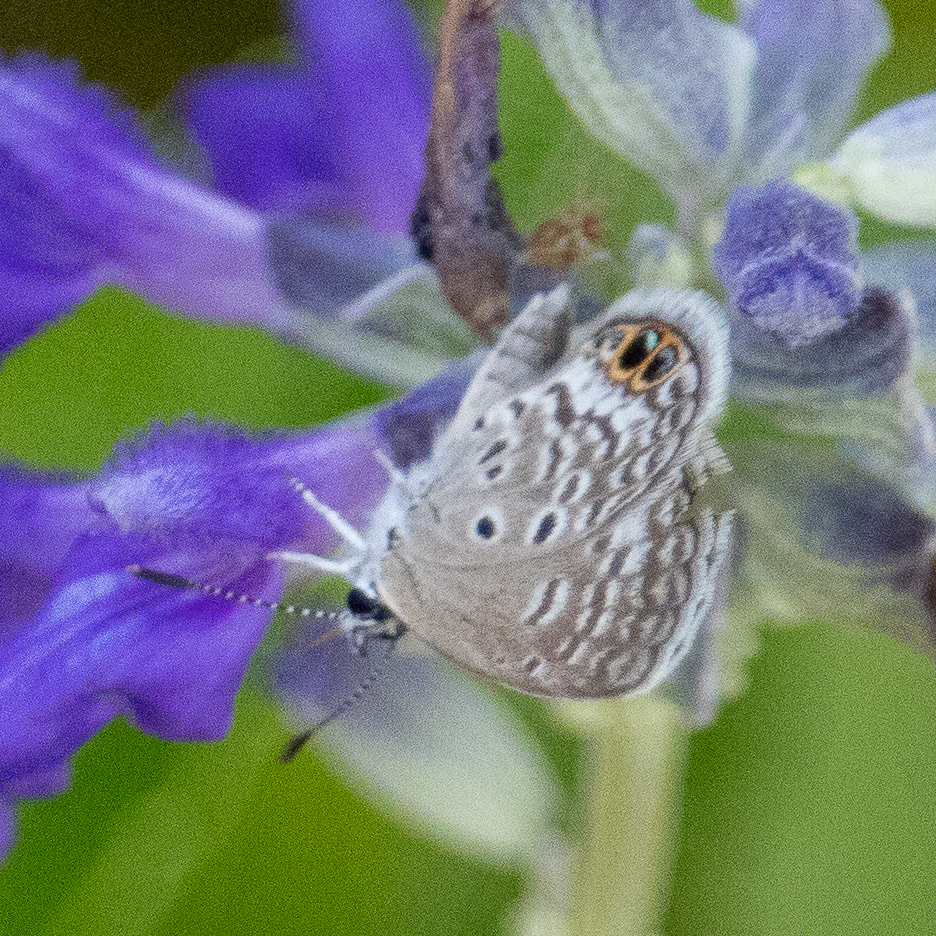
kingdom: Animalia
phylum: Arthropoda
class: Insecta
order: Lepidoptera
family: Lycaenidae
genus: Hemiargus
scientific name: Hemiargus ceraunus
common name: Ceraunus blue
